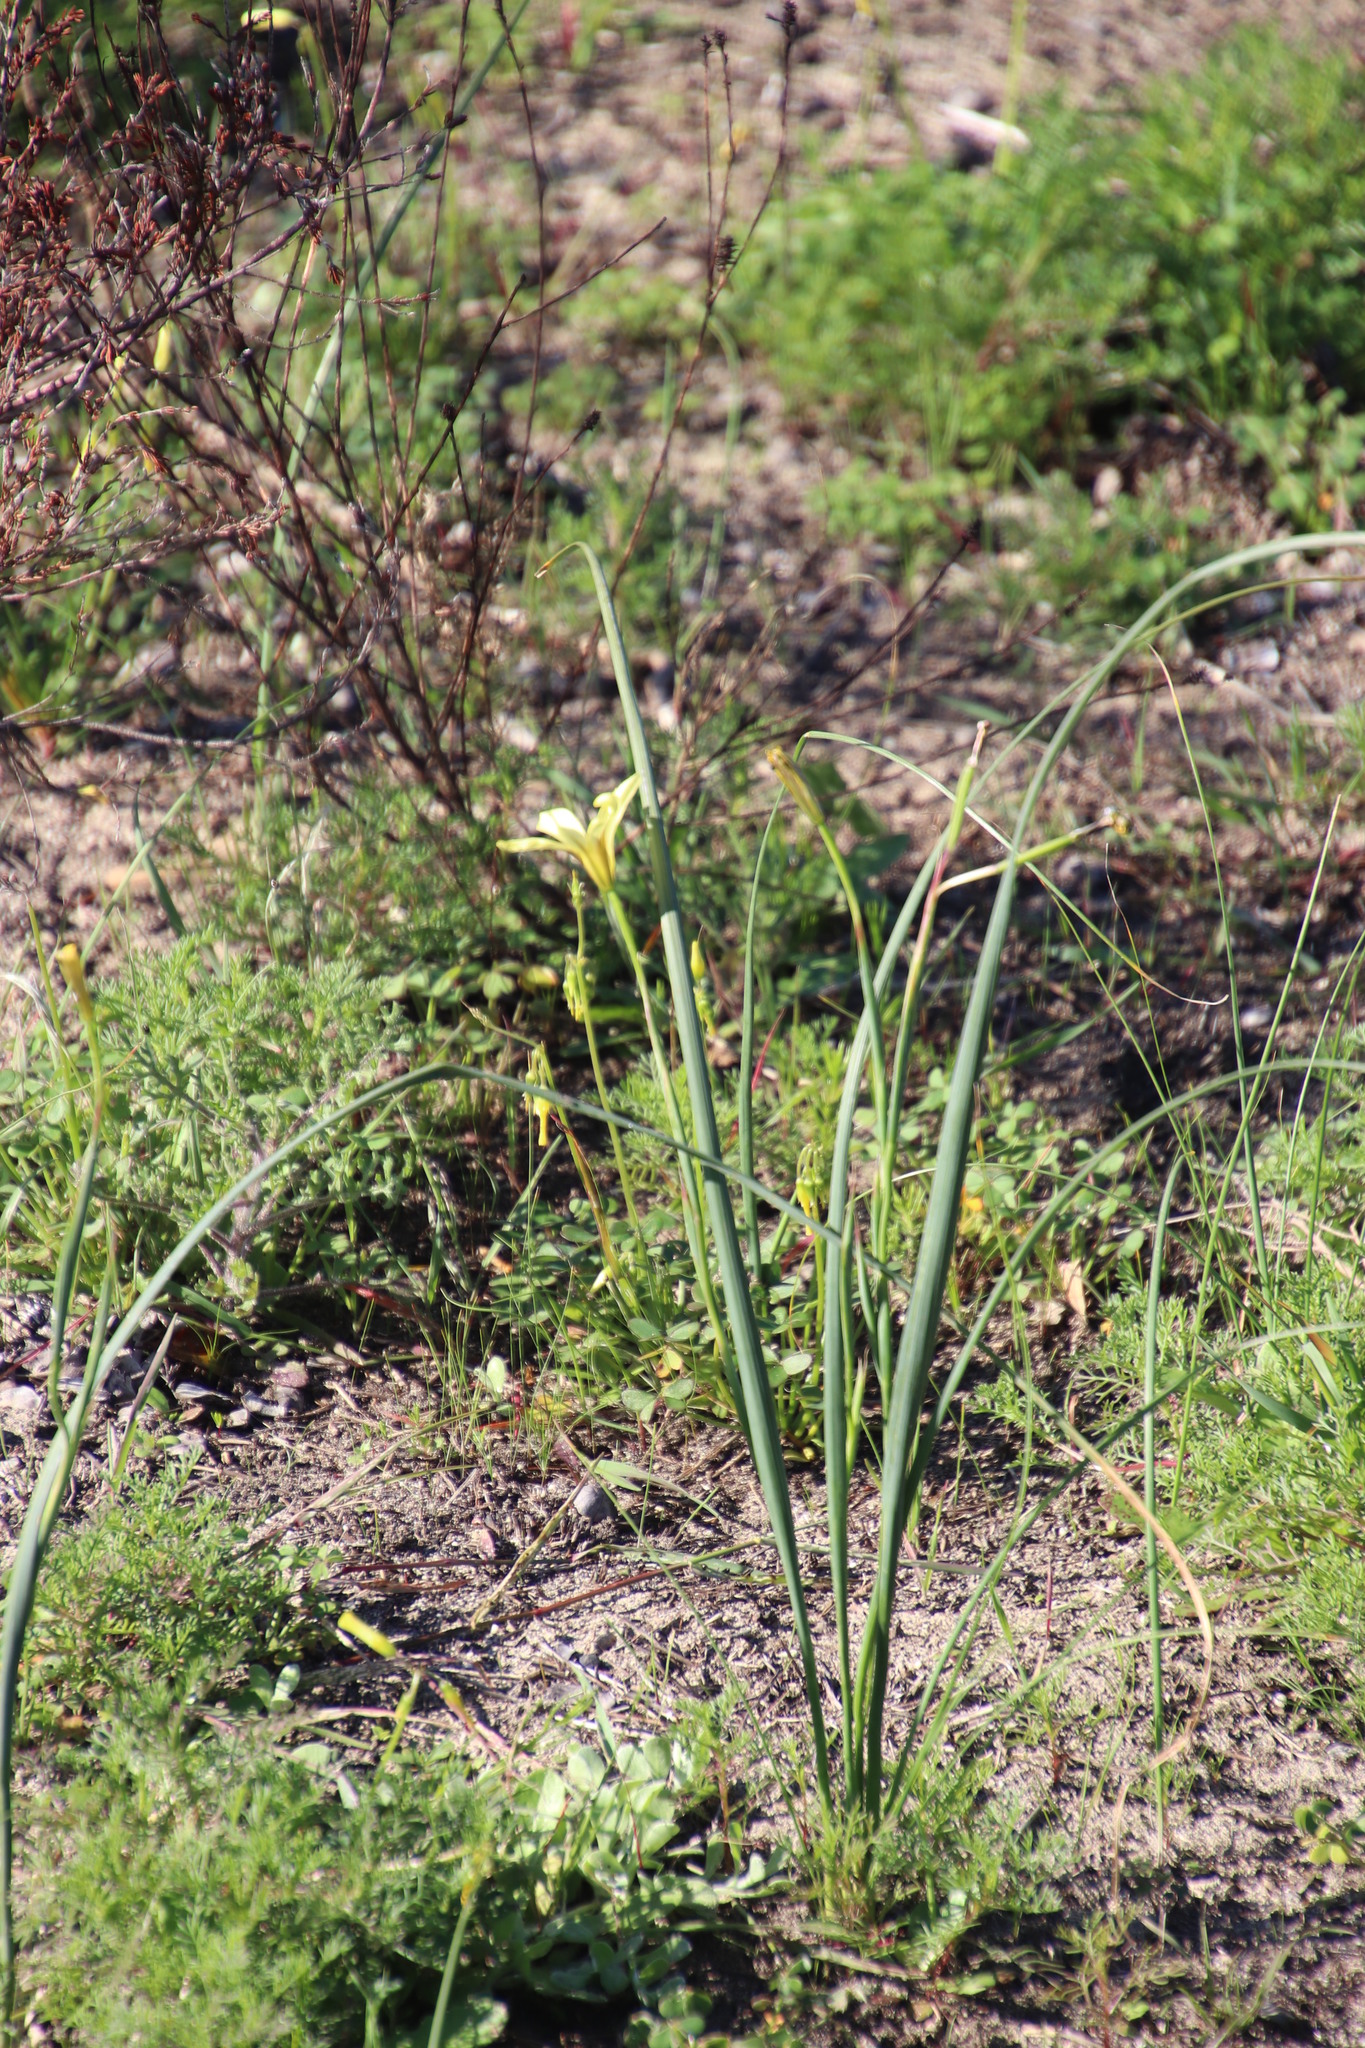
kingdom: Plantae
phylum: Tracheophyta
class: Liliopsida
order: Asparagales
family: Iridaceae
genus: Moraea
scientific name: Moraea collina
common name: Cape-tulip
